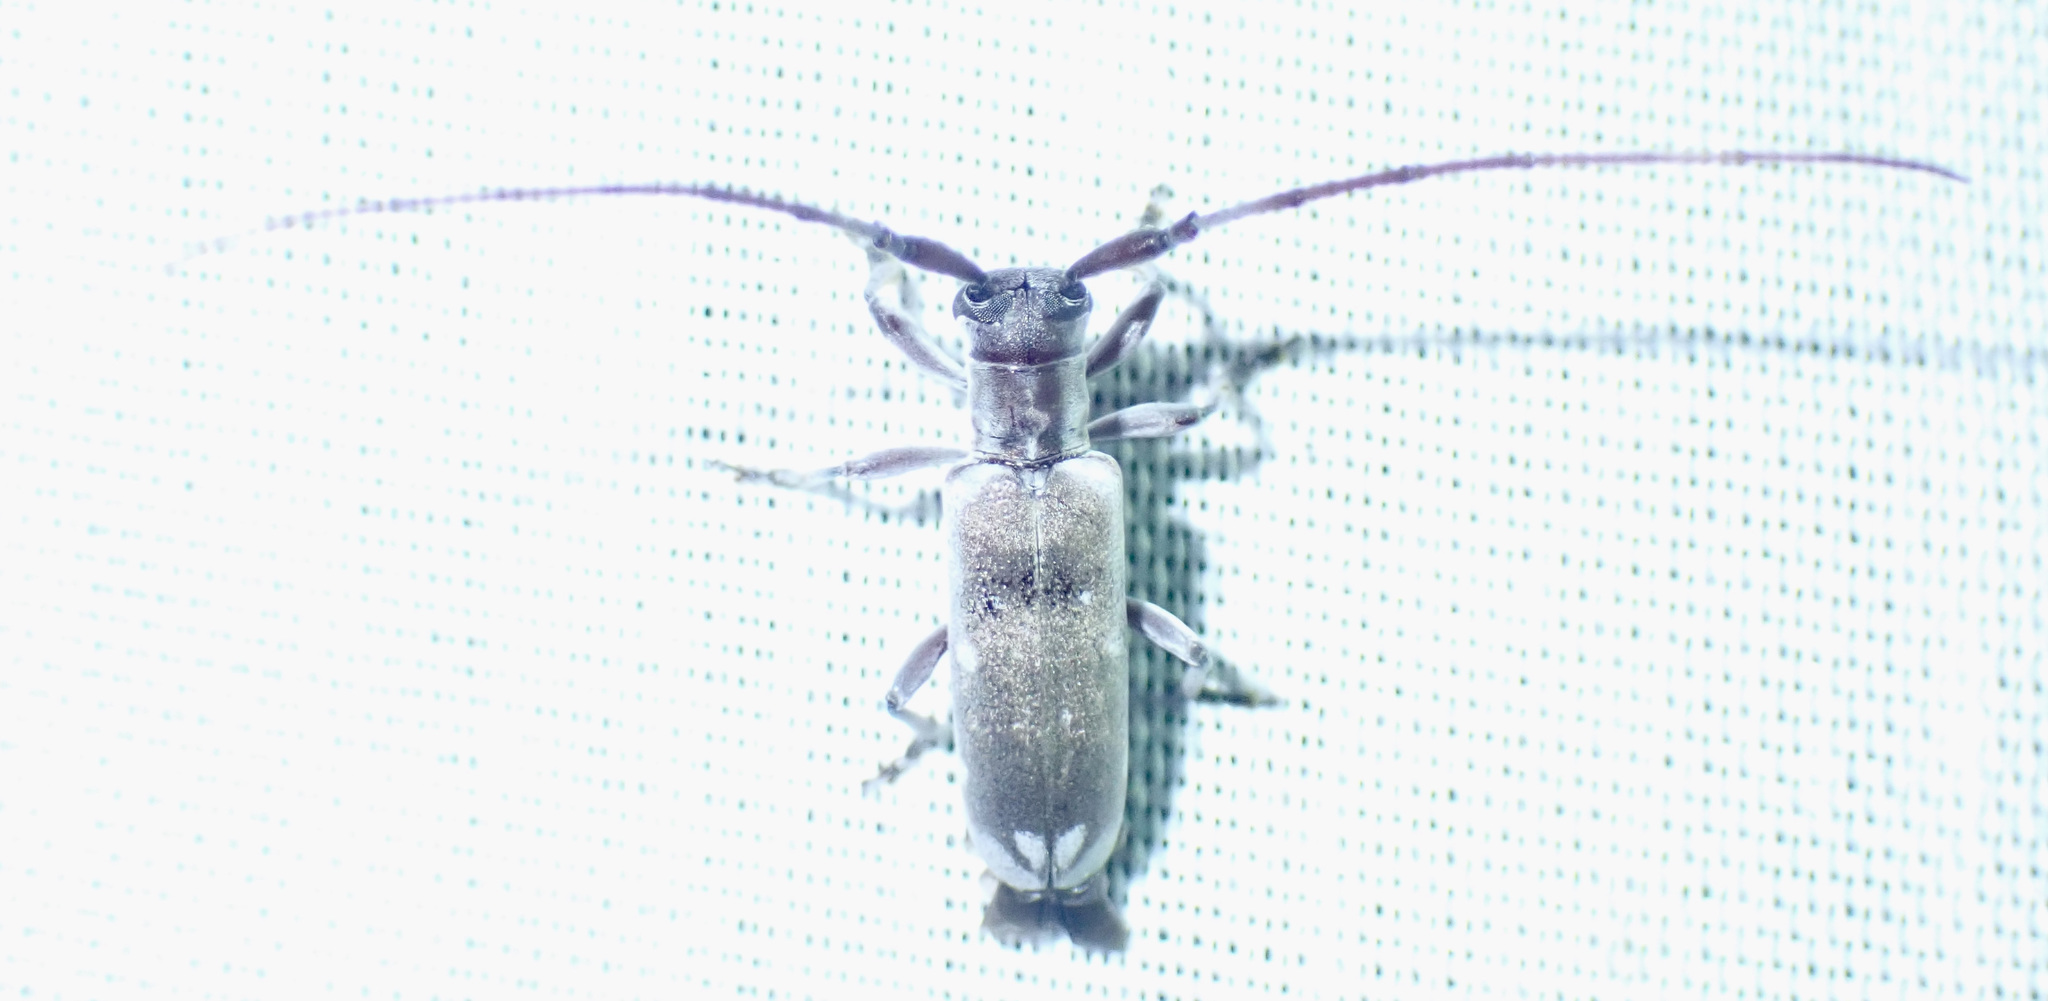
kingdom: Animalia
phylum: Arthropoda
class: Insecta
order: Coleoptera
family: Cerambycidae
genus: Eunidia
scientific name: Eunidia thomseni
